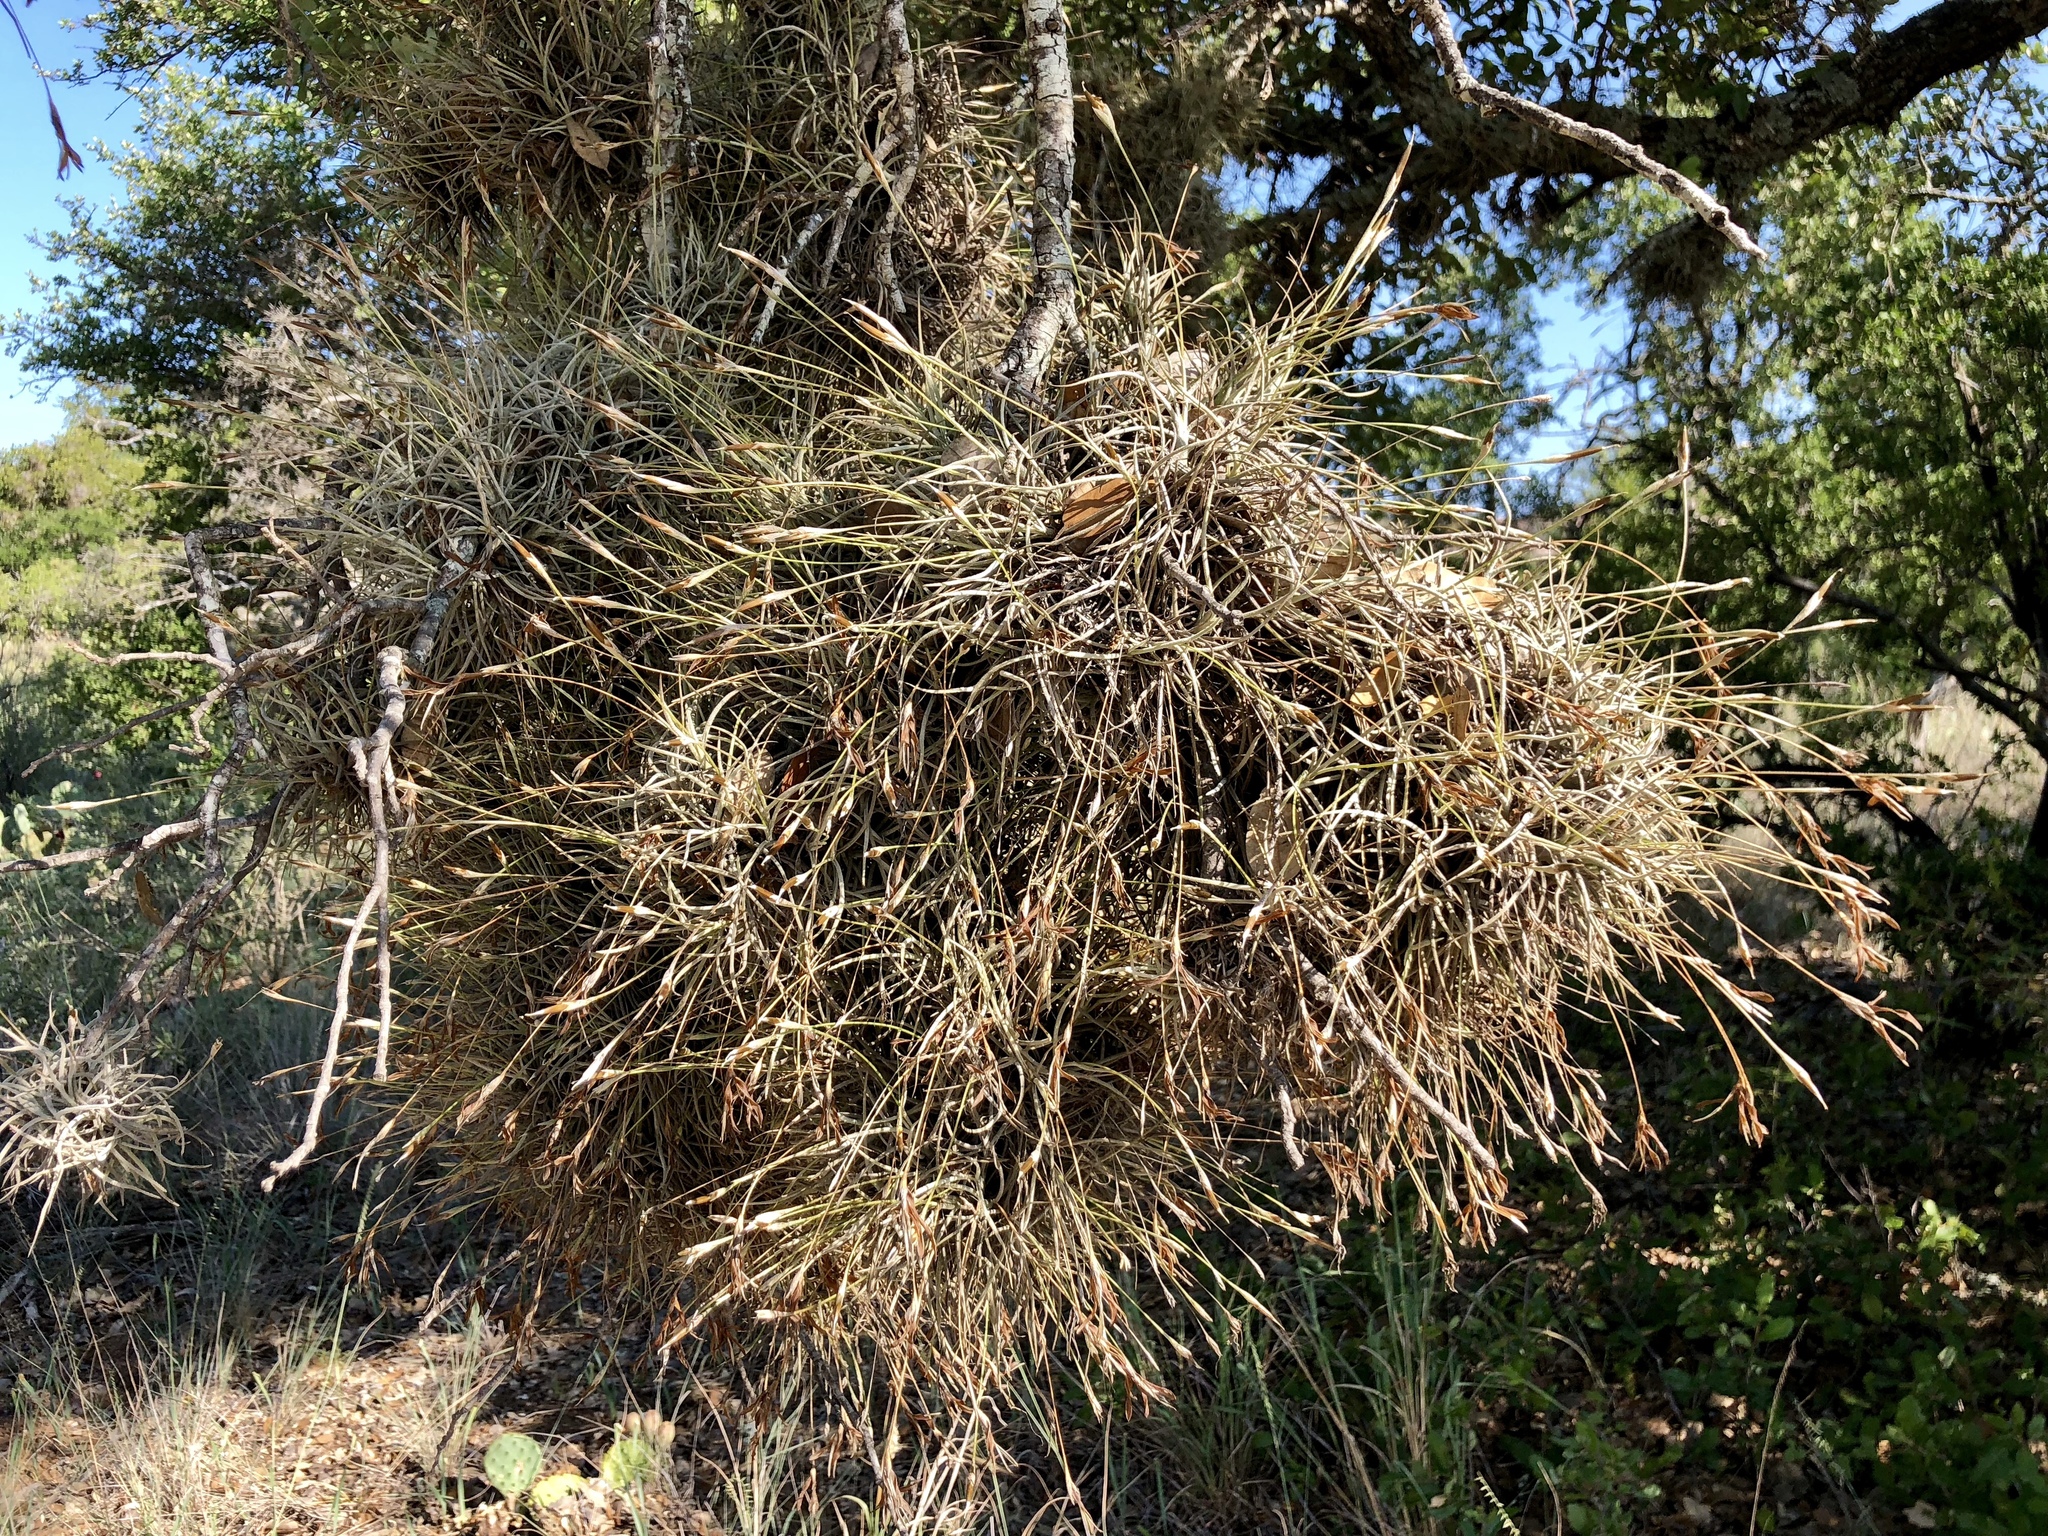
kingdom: Plantae
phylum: Tracheophyta
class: Liliopsida
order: Poales
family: Bromeliaceae
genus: Tillandsia
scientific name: Tillandsia recurvata
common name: Small ballmoss
